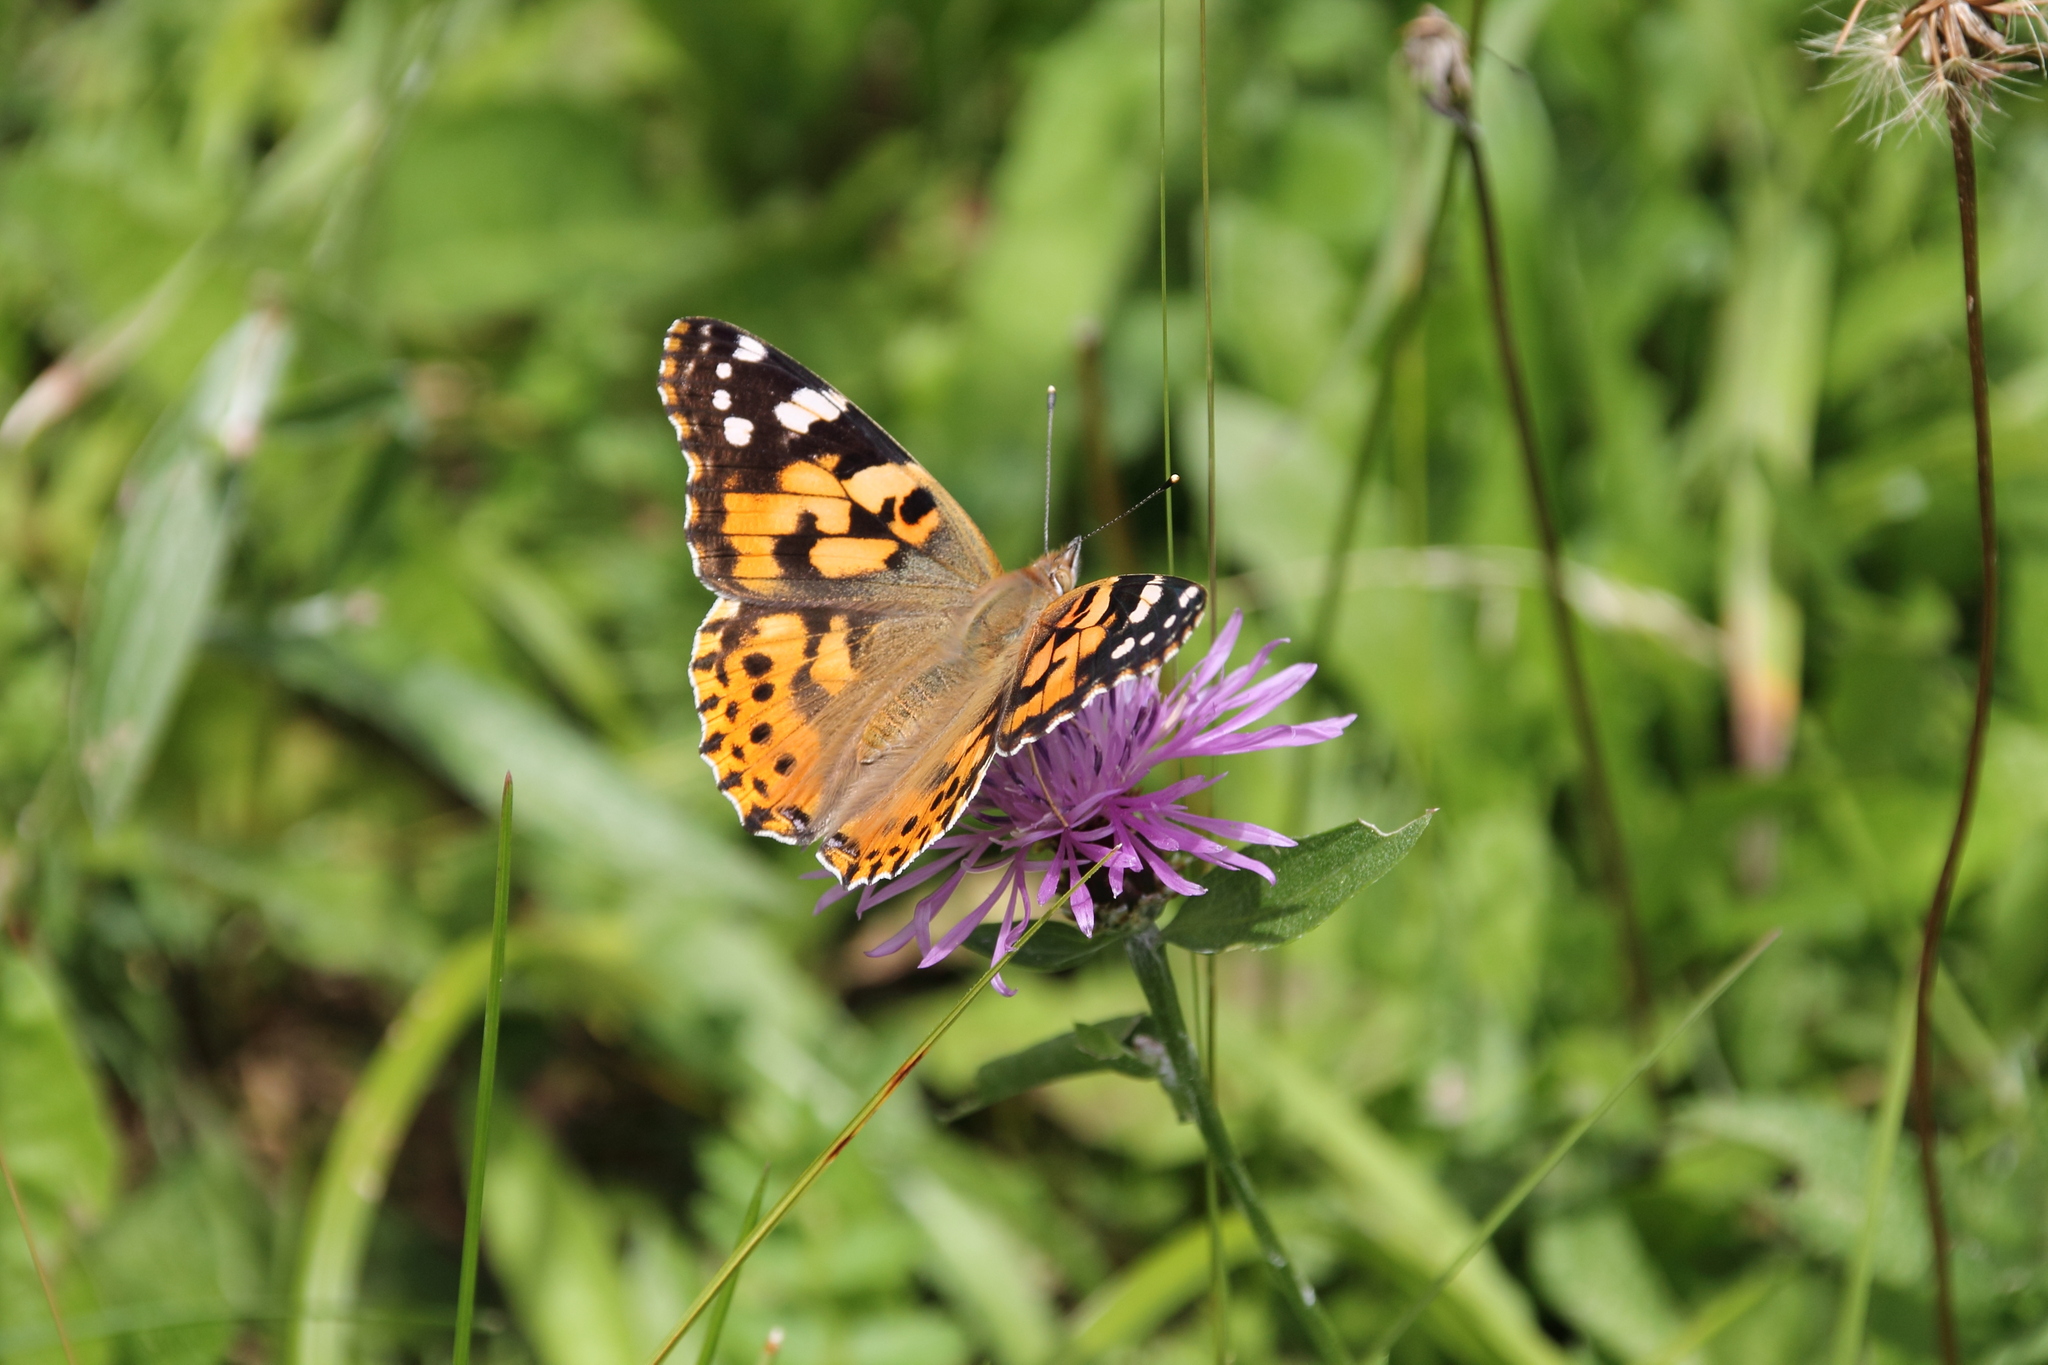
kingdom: Animalia
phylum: Arthropoda
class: Insecta
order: Lepidoptera
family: Nymphalidae
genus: Vanessa
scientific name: Vanessa cardui
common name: Painted lady
